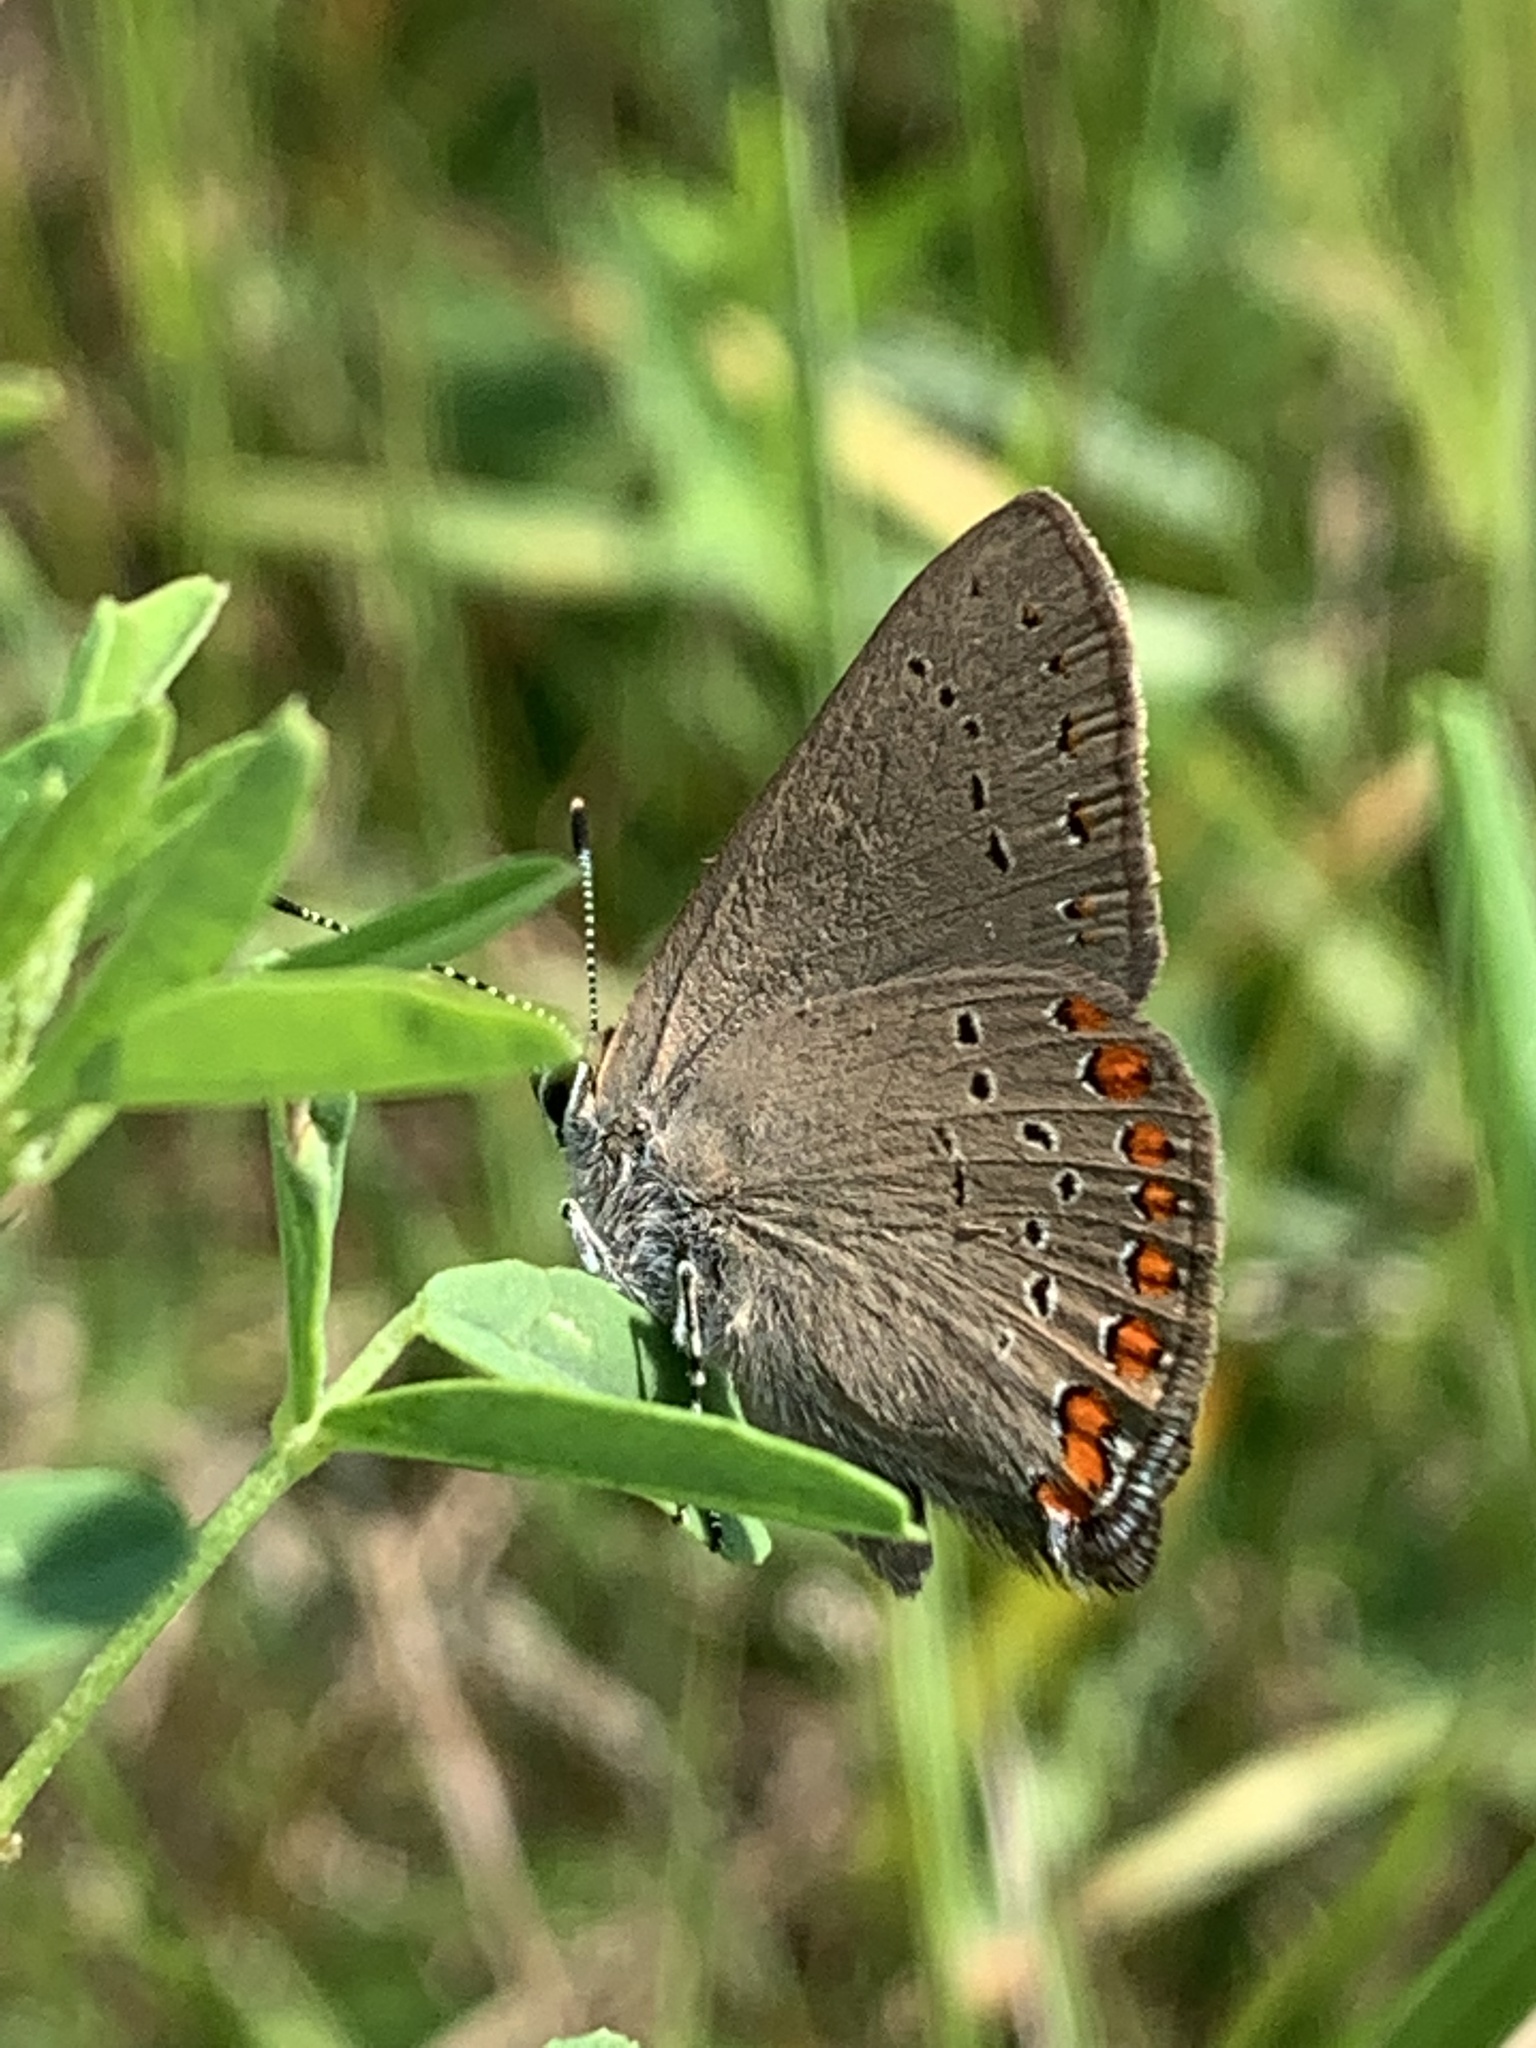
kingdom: Animalia
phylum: Arthropoda
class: Insecta
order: Lepidoptera
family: Lycaenidae
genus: Harkenclenus
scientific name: Harkenclenus titus
